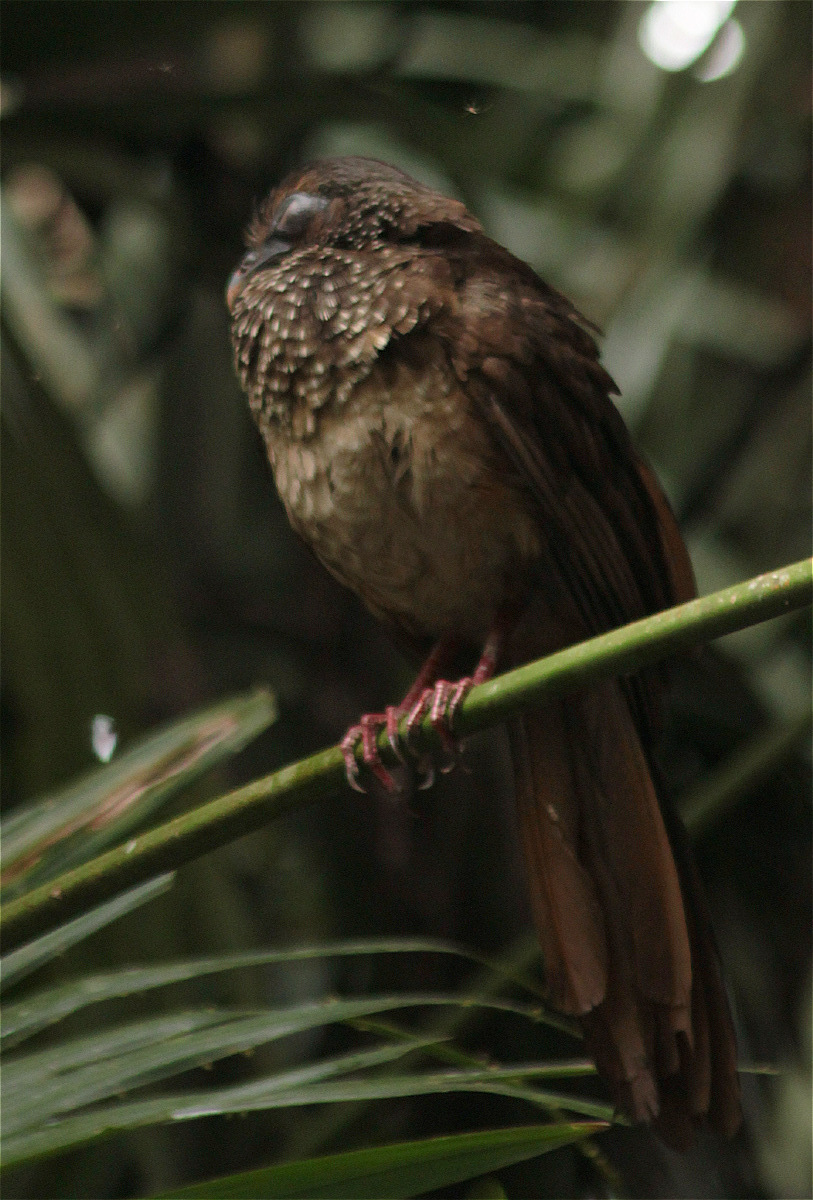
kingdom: Animalia
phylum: Chordata
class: Aves
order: Galliformes
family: Cracidae
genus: Ortalis
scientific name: Ortalis guttata
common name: Speckled chachalaca
